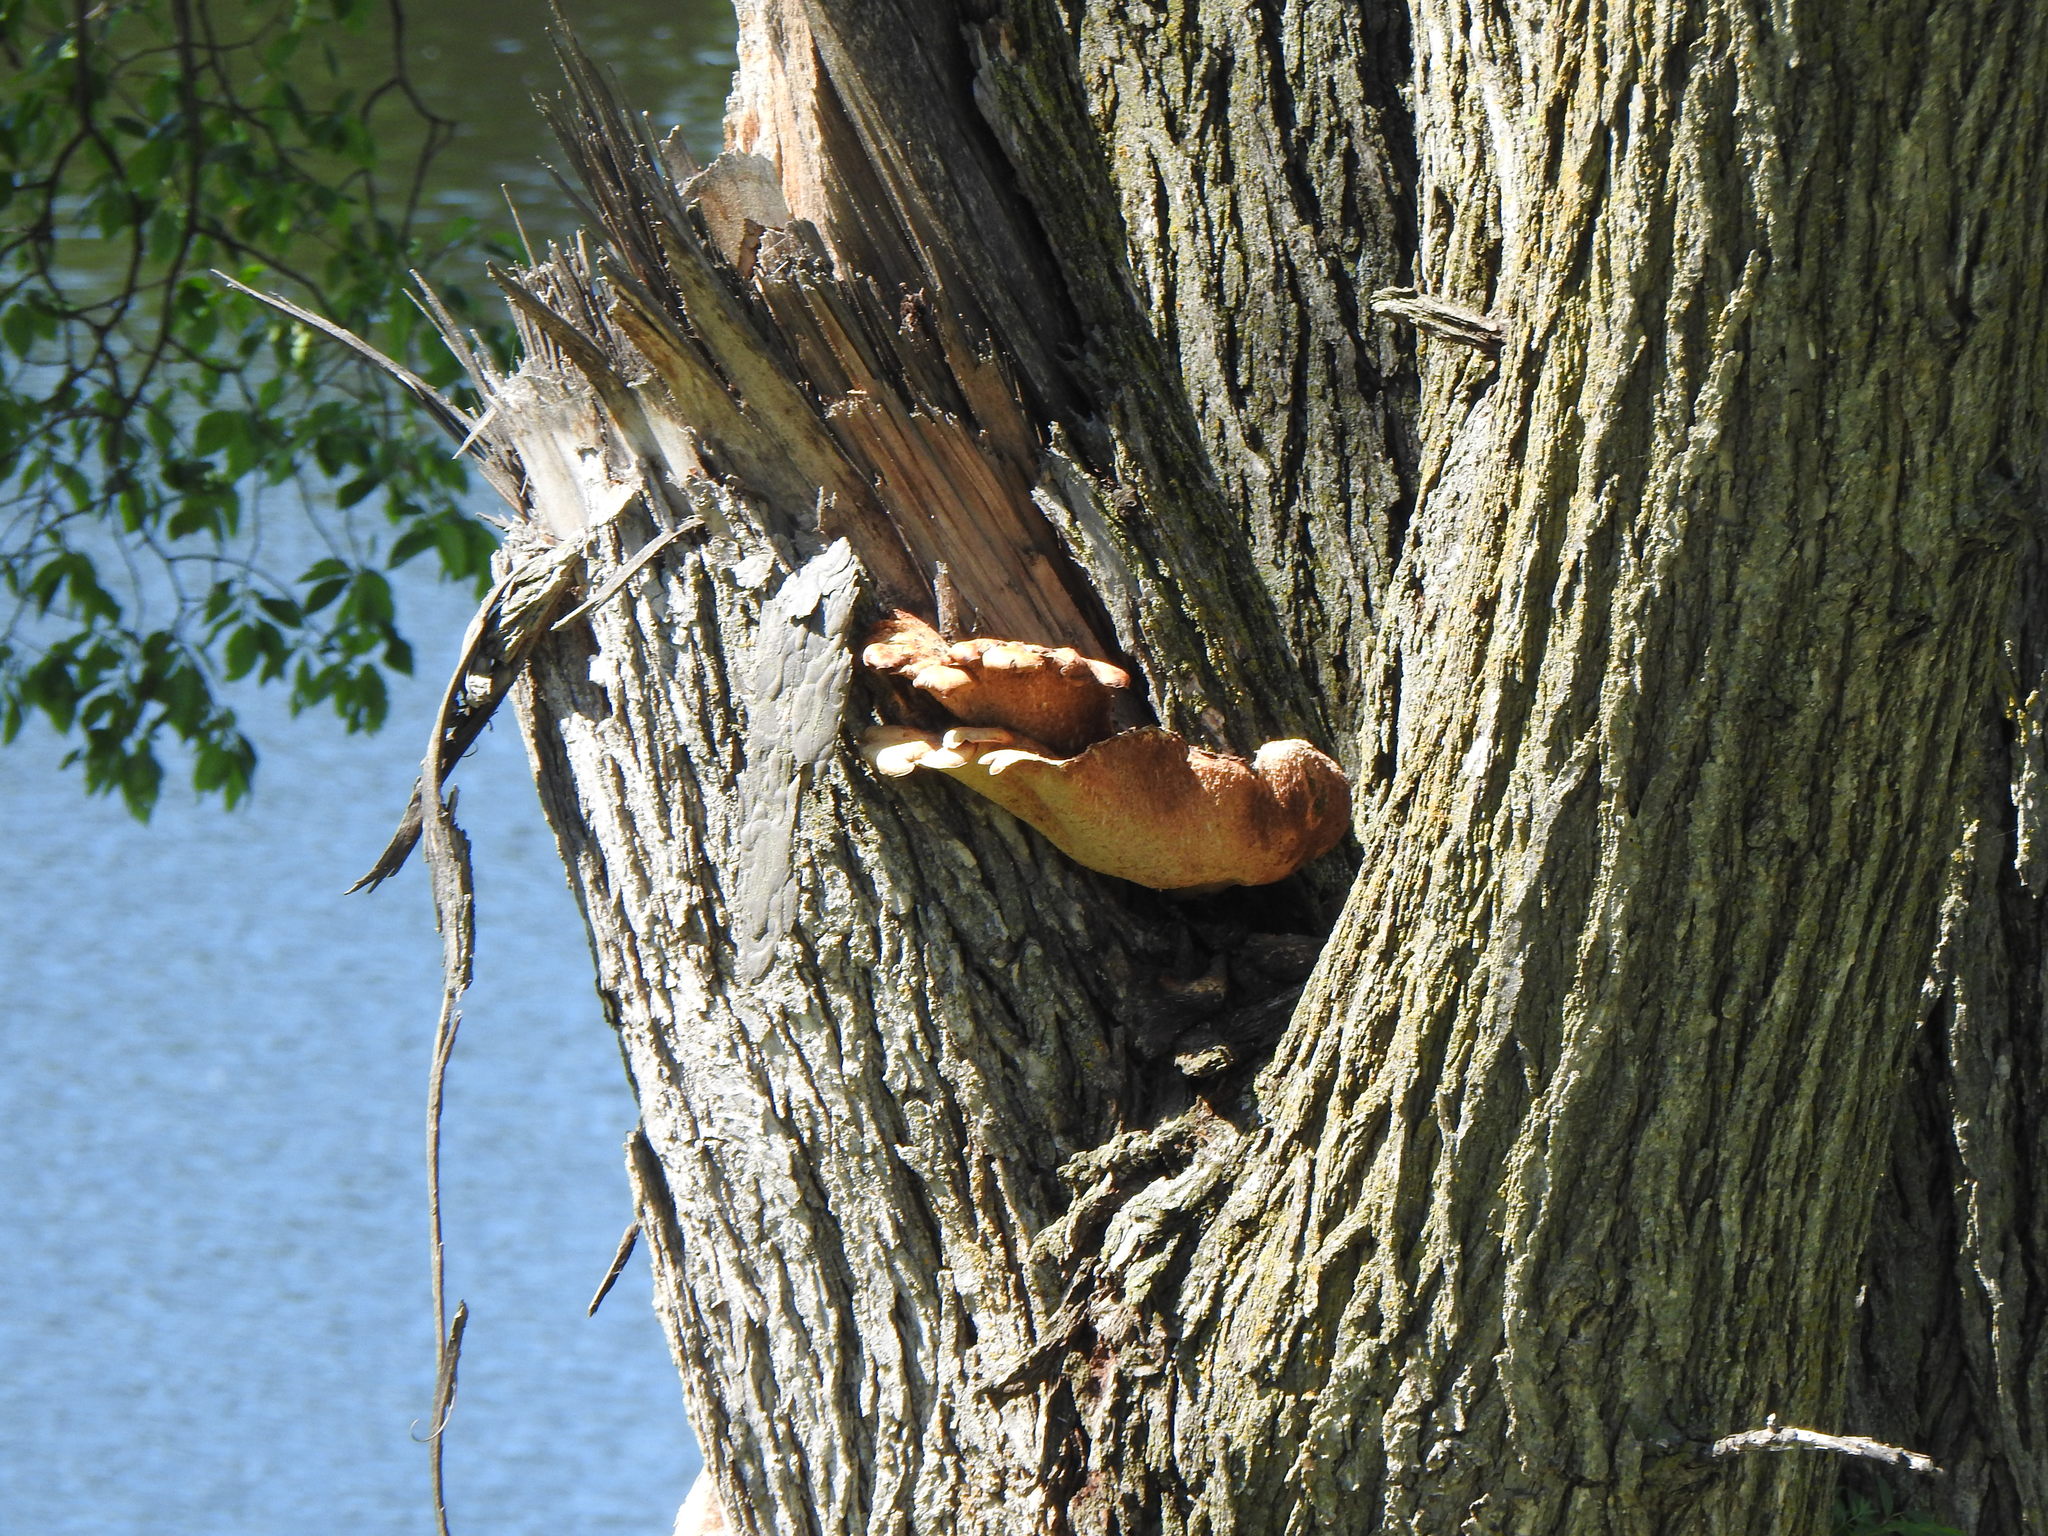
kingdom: Fungi
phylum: Basidiomycota
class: Agaricomycetes
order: Polyporales
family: Polyporaceae
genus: Cerioporus
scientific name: Cerioporus squamosus
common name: Dryad's saddle
